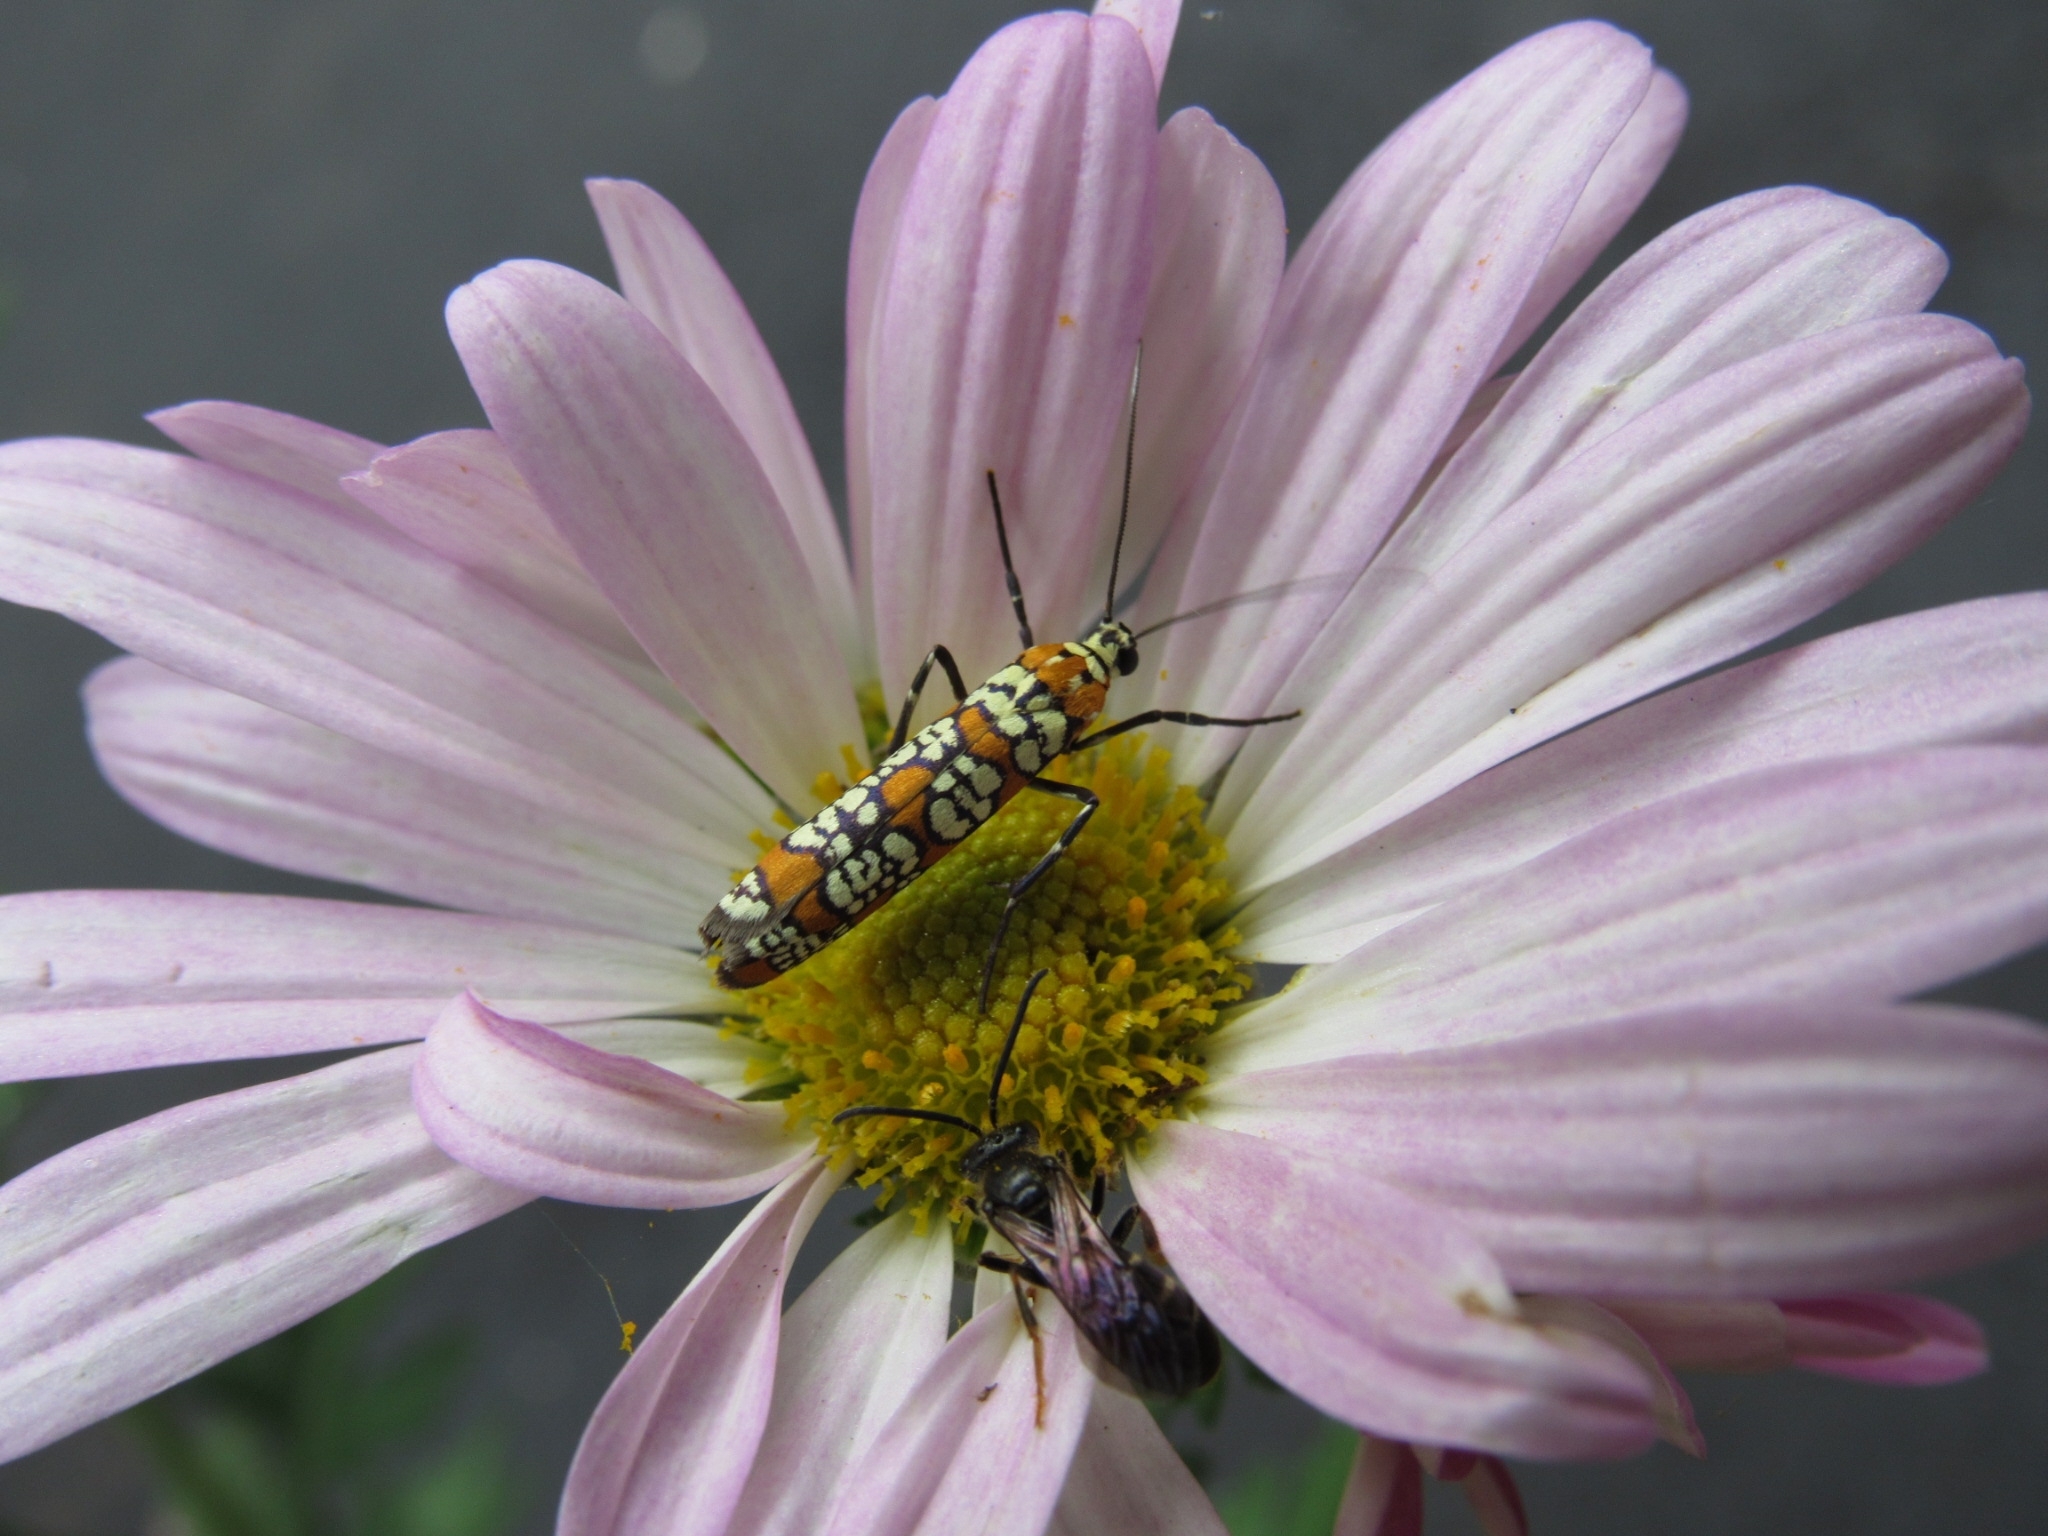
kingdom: Animalia
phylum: Arthropoda
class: Insecta
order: Lepidoptera
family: Attevidae
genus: Atteva
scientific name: Atteva punctella
